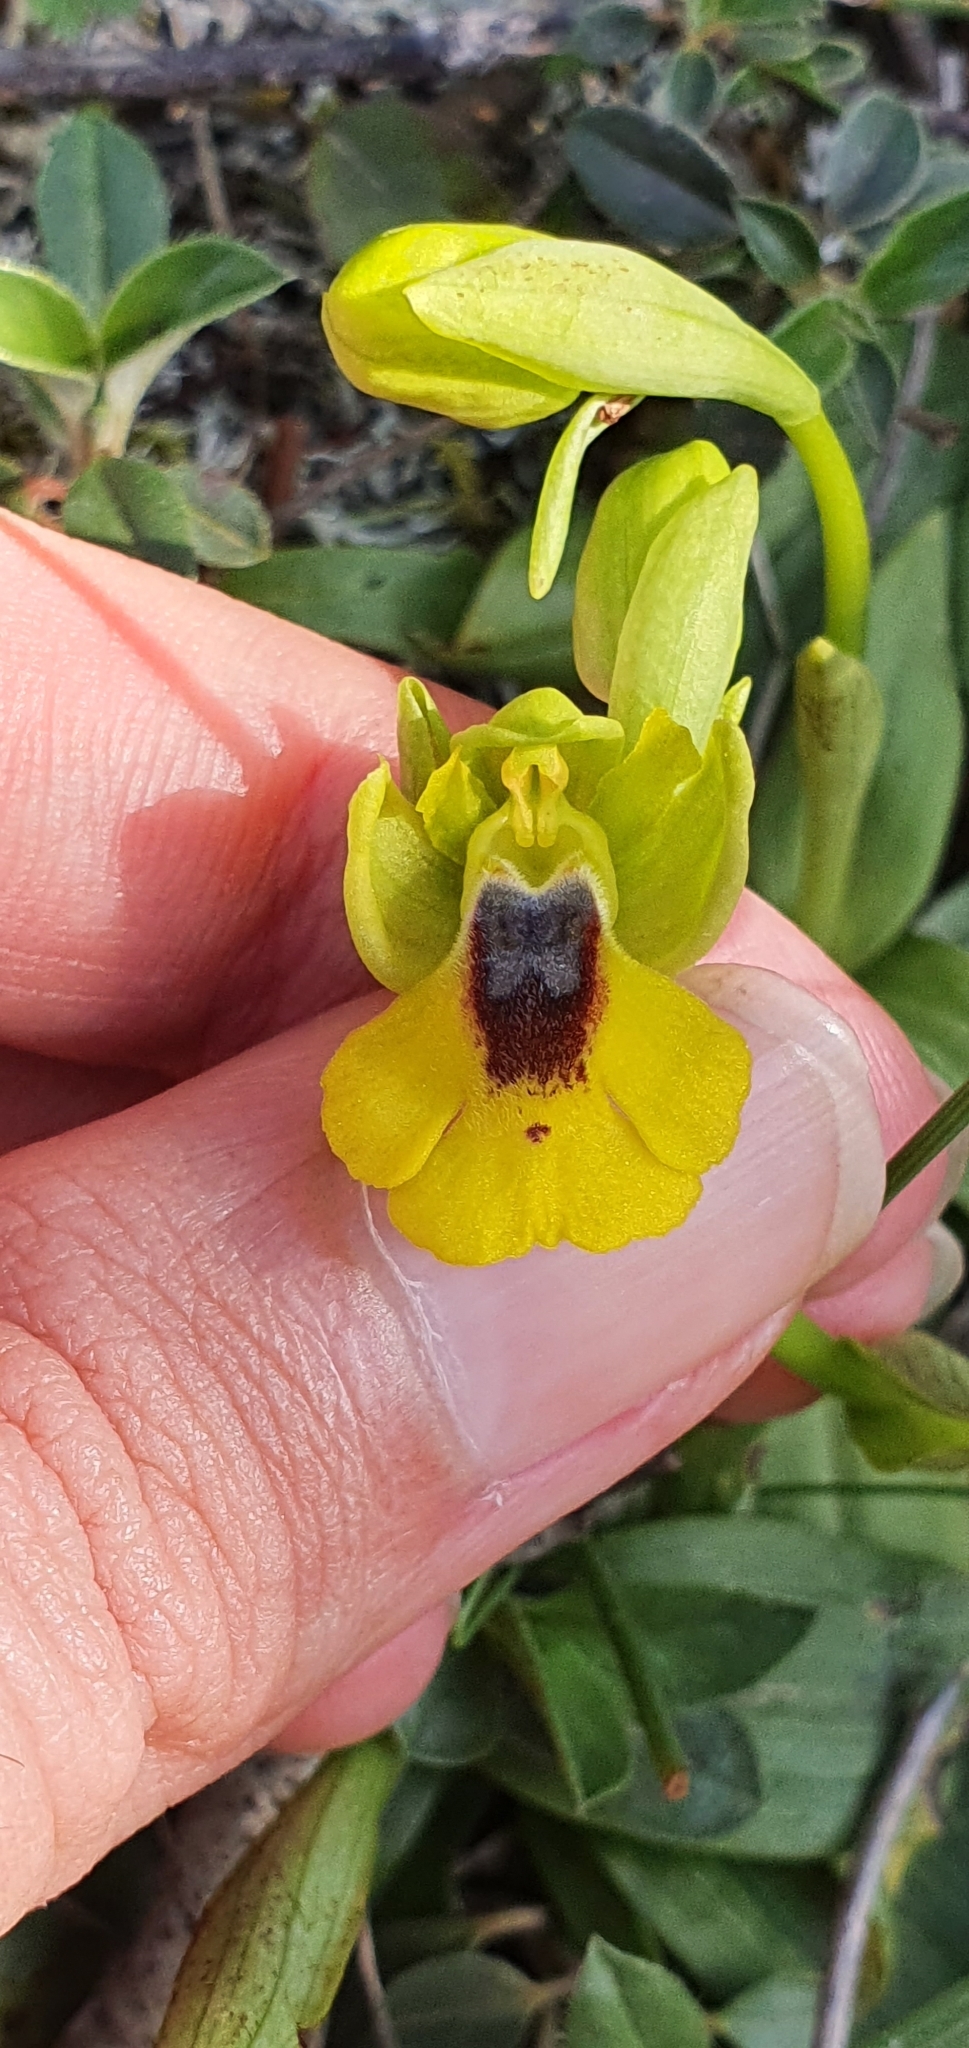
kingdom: Plantae
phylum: Tracheophyta
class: Liliopsida
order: Asparagales
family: Orchidaceae
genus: Ophrys
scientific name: Ophrys lutea
